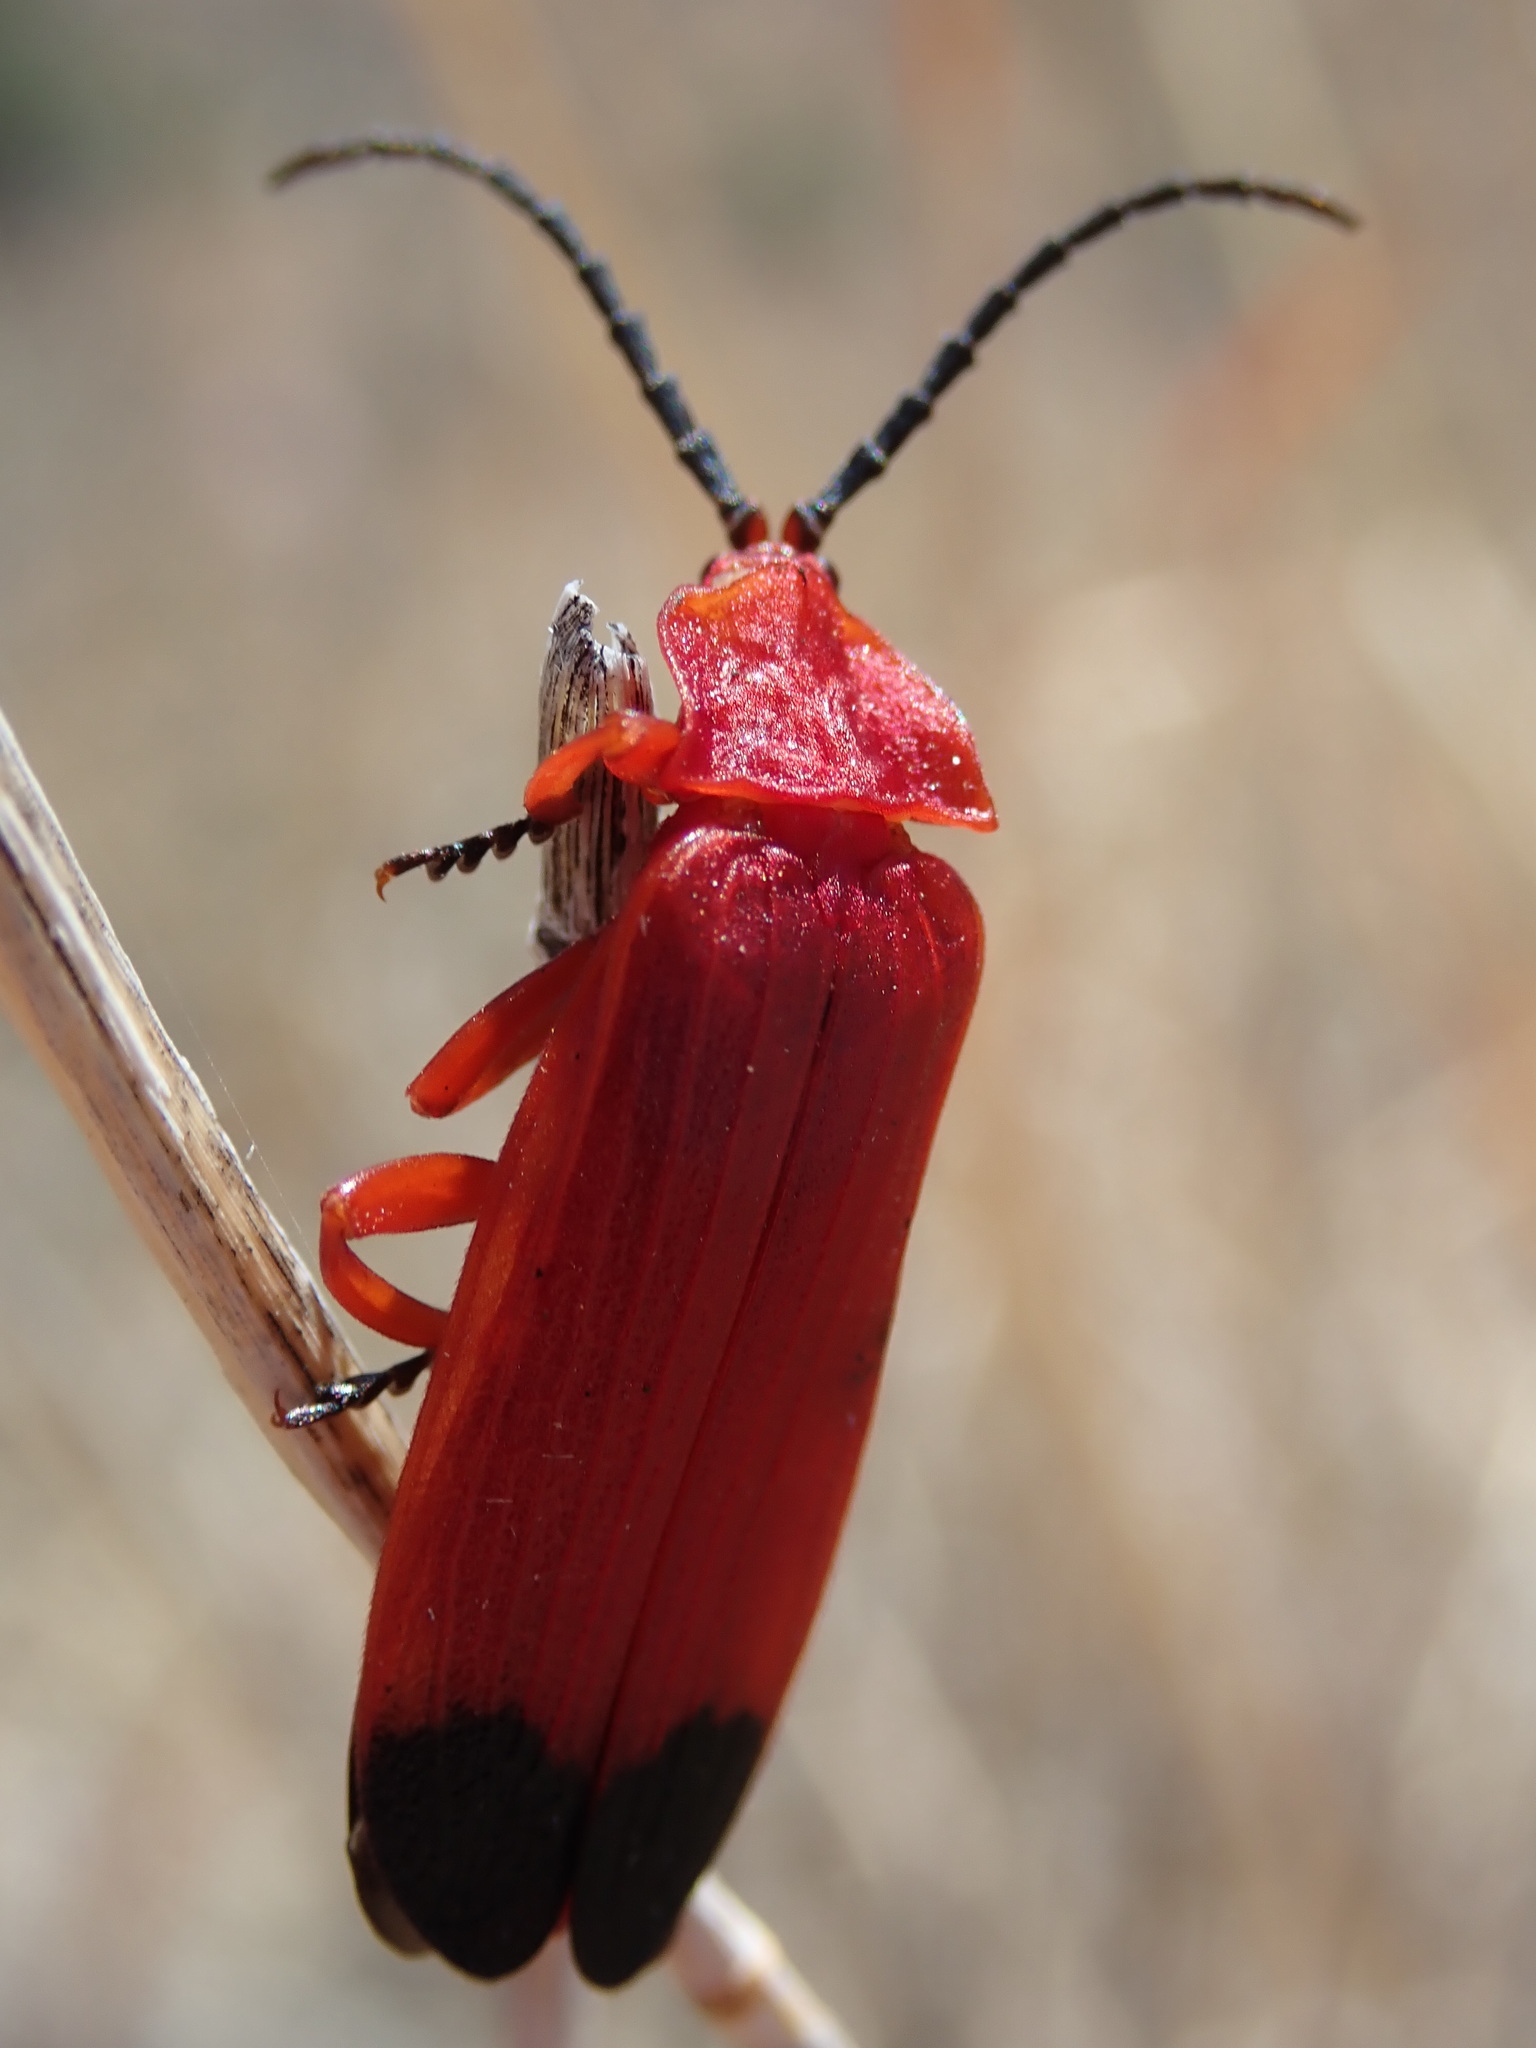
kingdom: Animalia
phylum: Arthropoda
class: Insecta
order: Coleoptera
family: Lycidae
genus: Lycus
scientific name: Lycus sanguineus
